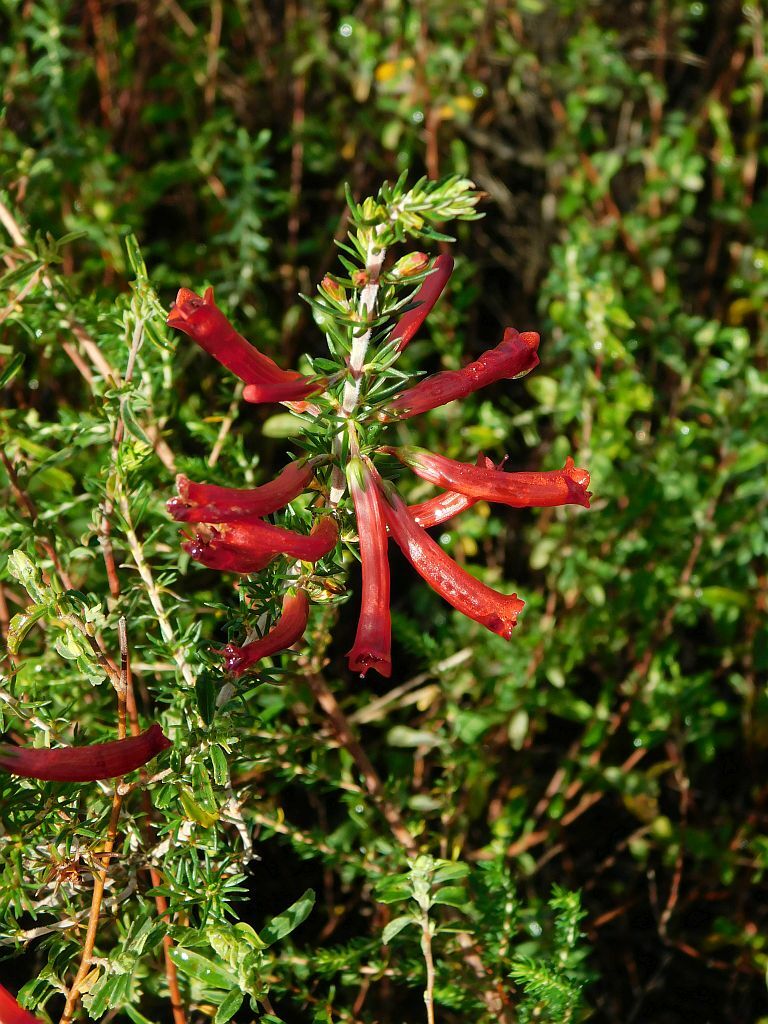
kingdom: Plantae
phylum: Tracheophyta
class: Magnoliopsida
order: Ericales
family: Ericaceae
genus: Erica
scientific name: Erica cruenta
